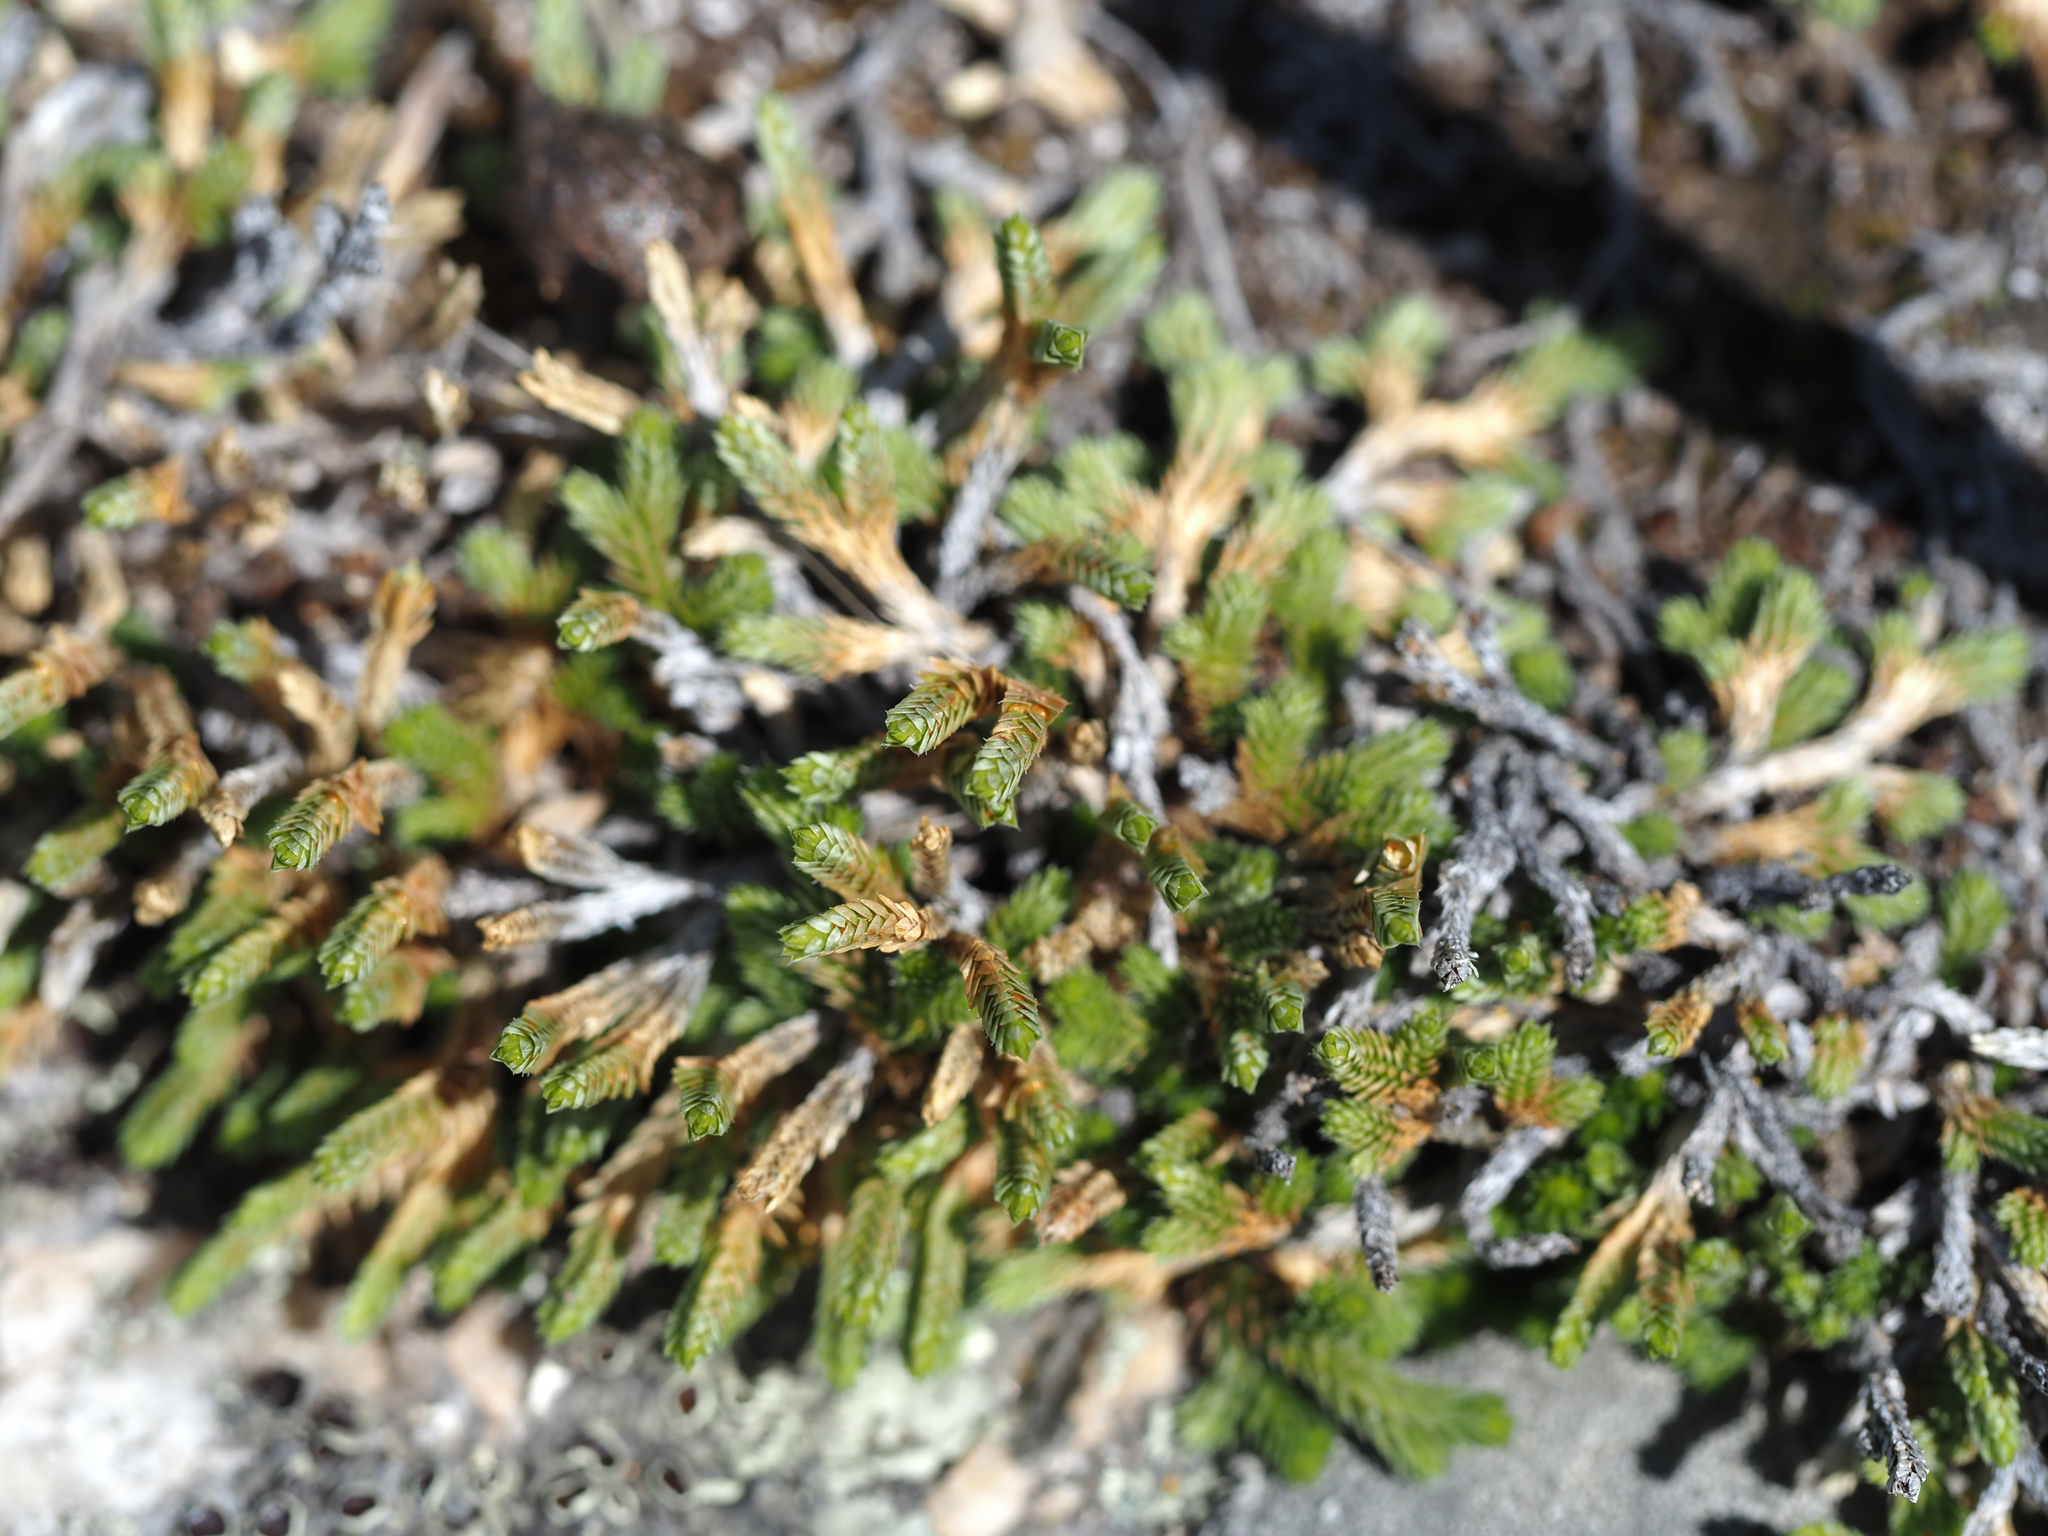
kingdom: Plantae
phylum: Tracheophyta
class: Lycopodiopsida
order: Selaginellales
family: Selaginellaceae
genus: Selaginella
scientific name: Selaginella wallacei
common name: Wallace's selaginella
